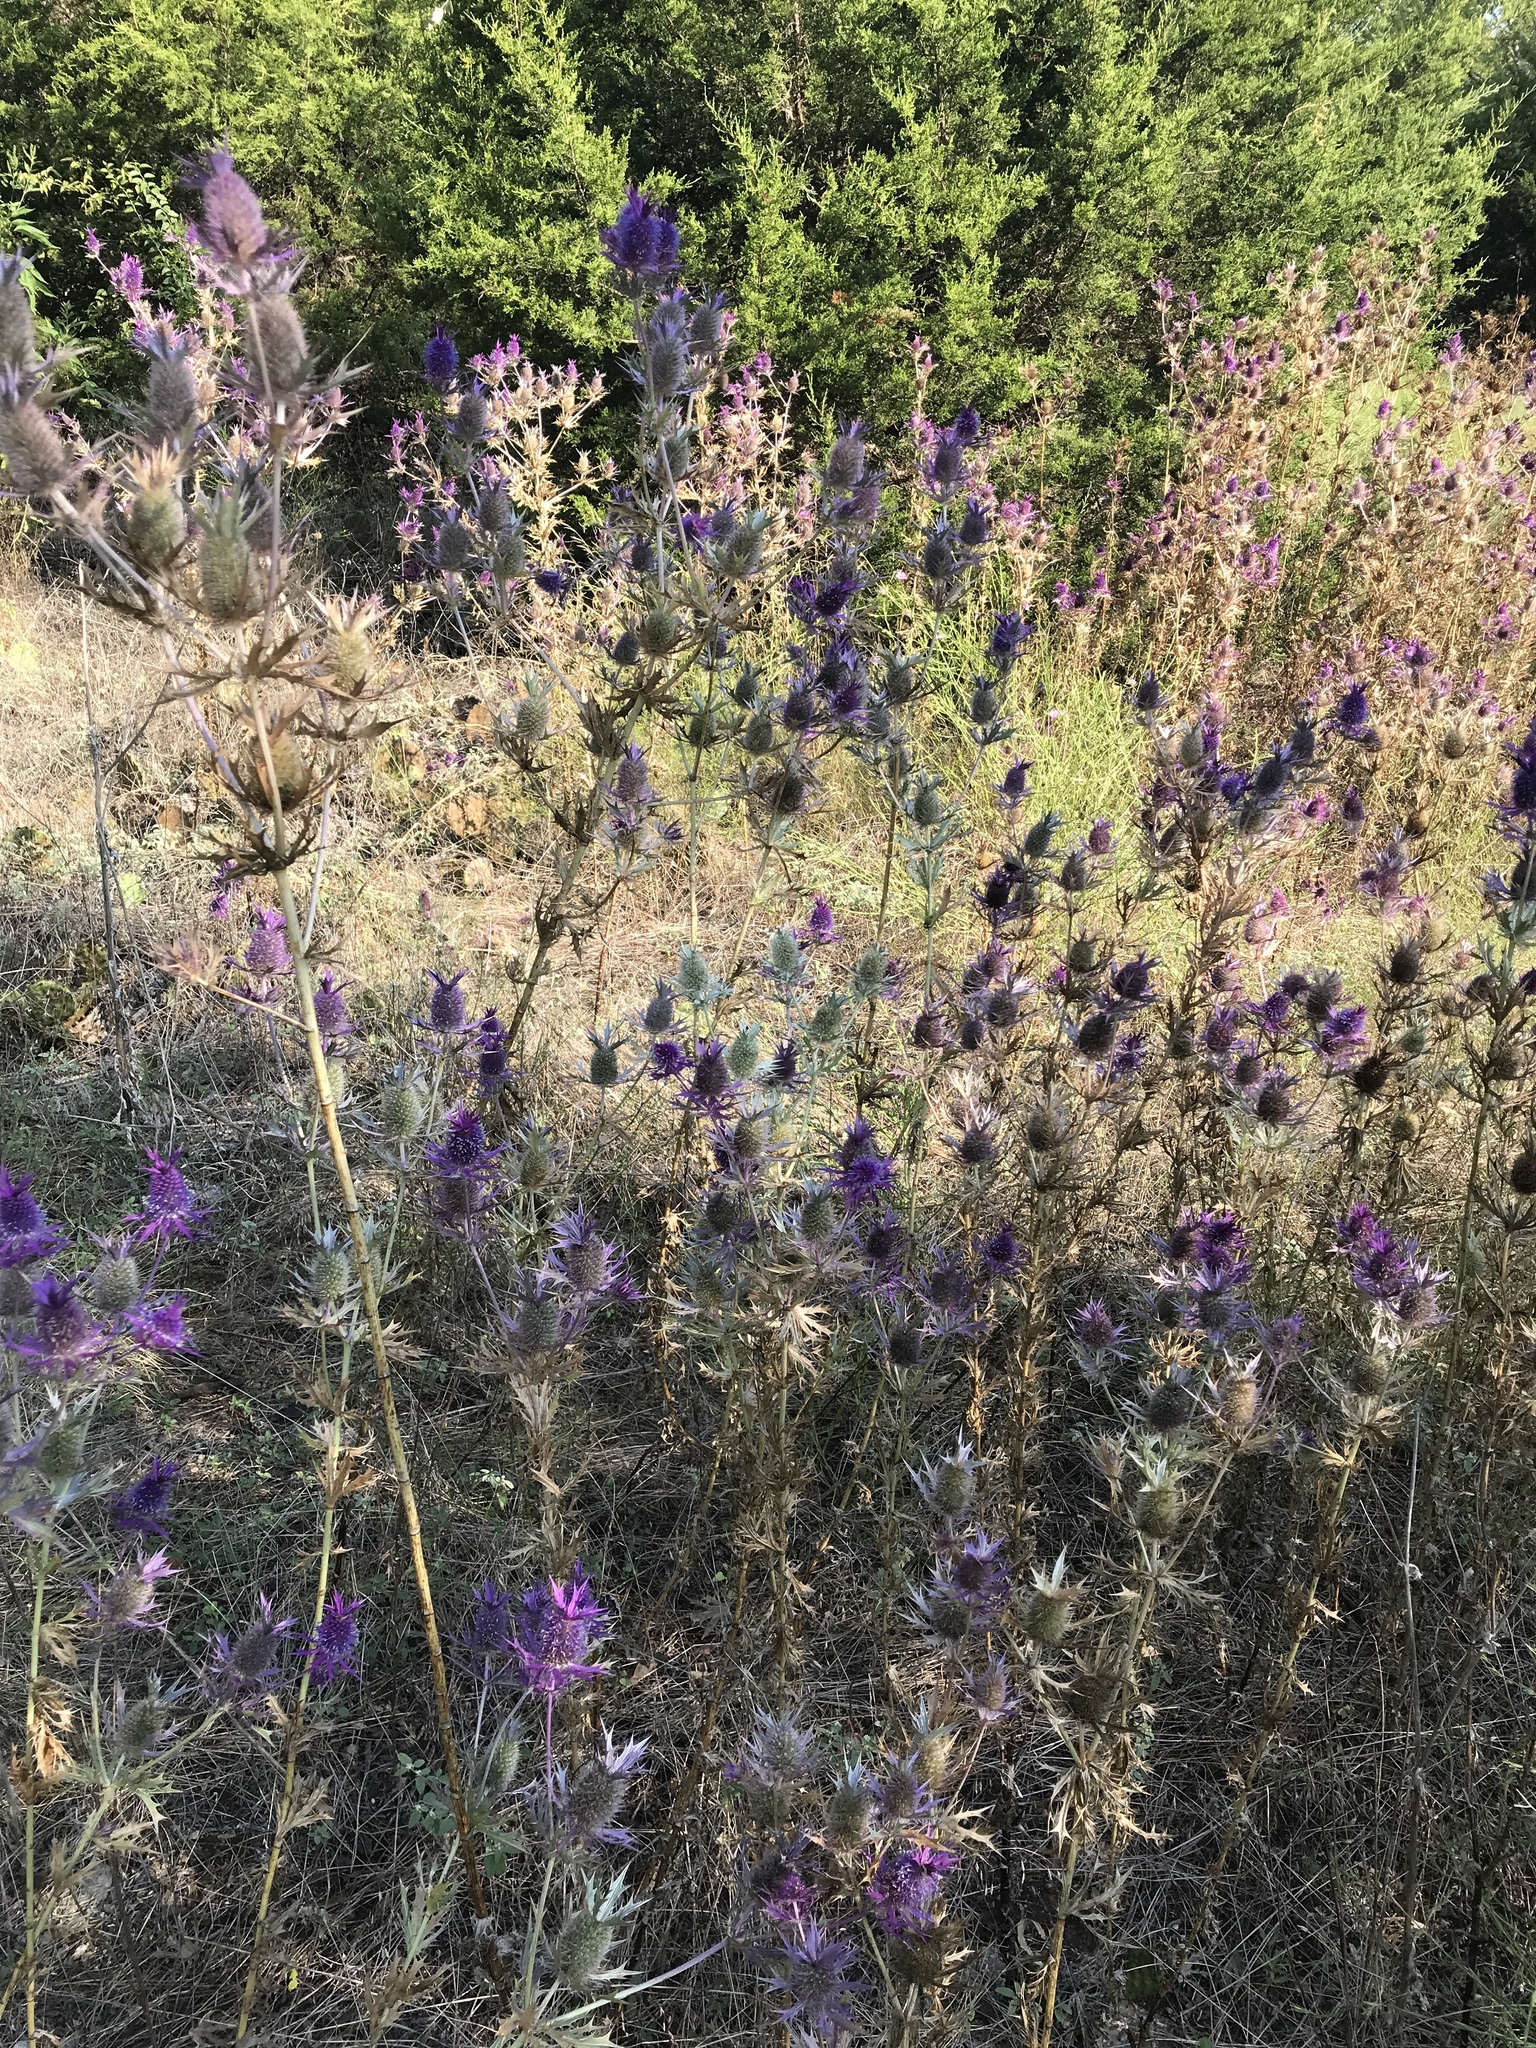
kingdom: Plantae
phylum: Tracheophyta
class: Magnoliopsida
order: Apiales
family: Apiaceae
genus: Eryngium
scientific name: Eryngium leavenworthii
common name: Leavenworth's eryngo
